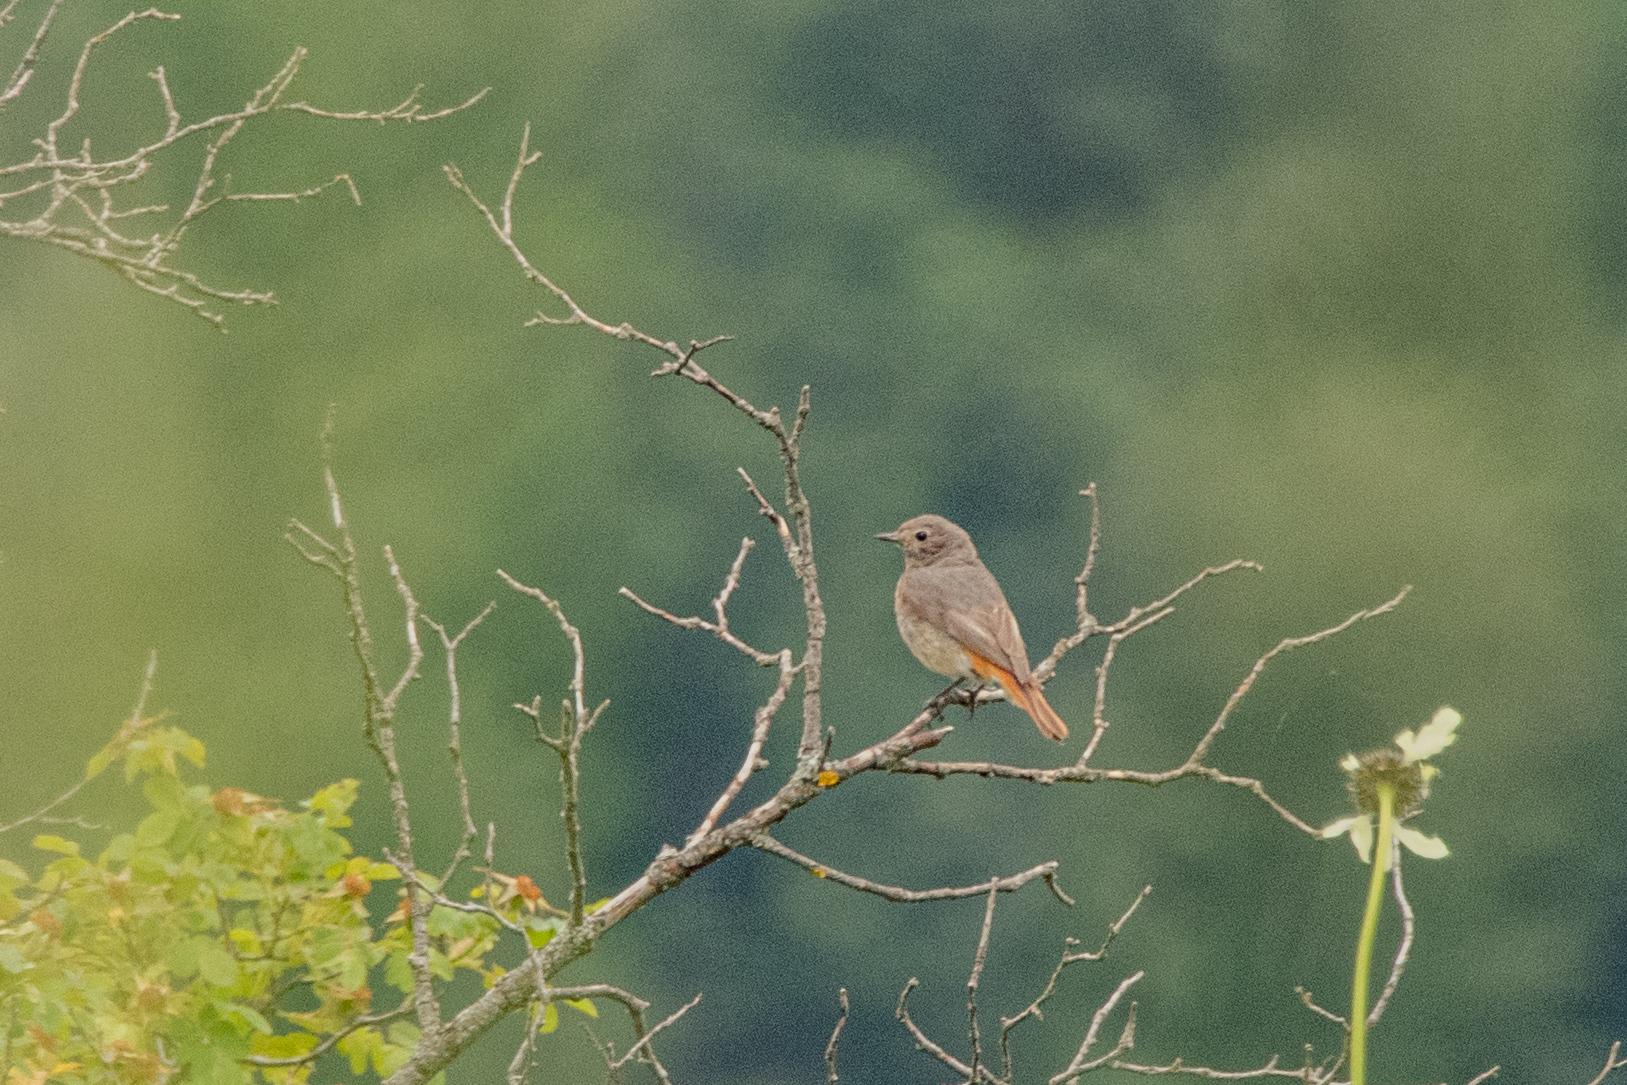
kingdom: Animalia
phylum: Chordata
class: Aves
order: Passeriformes
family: Muscicapidae
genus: Phoenicurus
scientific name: Phoenicurus phoenicurus
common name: Common redstart
